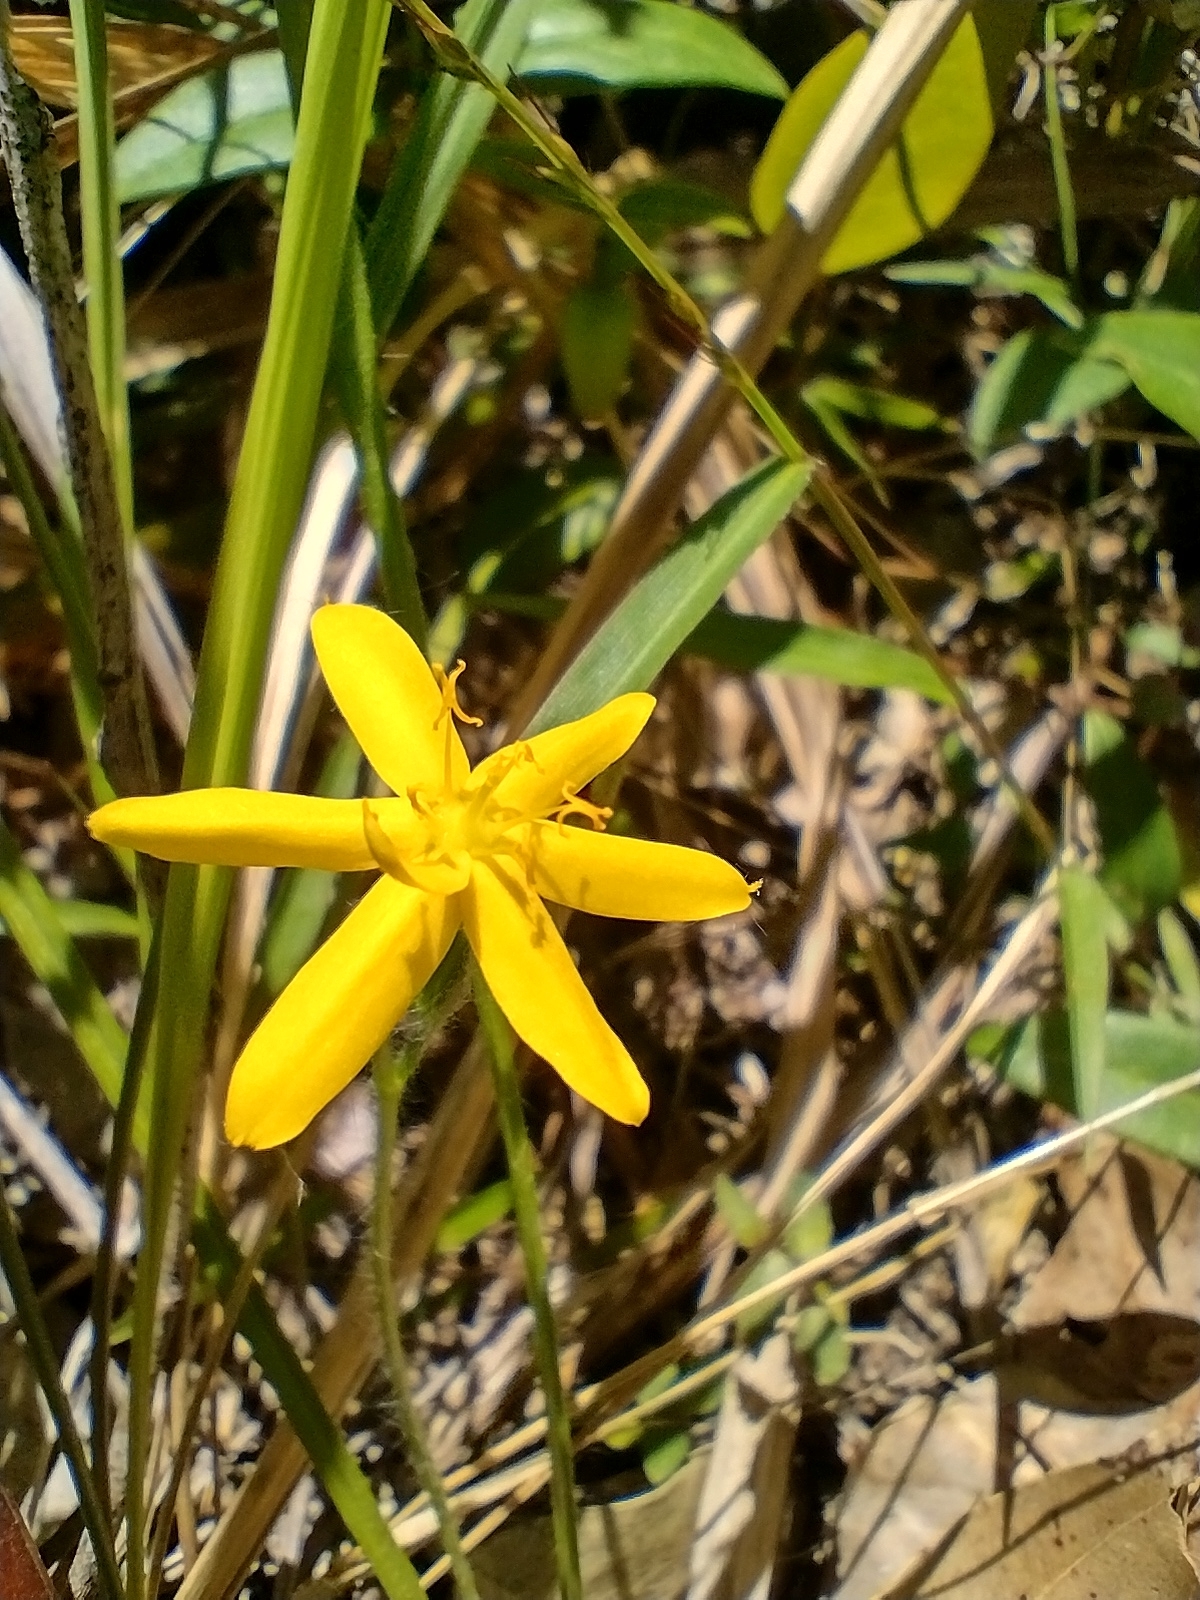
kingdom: Plantae
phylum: Tracheophyta
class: Liliopsida
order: Asparagales
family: Hypoxidaceae
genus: Hypoxis
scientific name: Hypoxis hygrometrica
